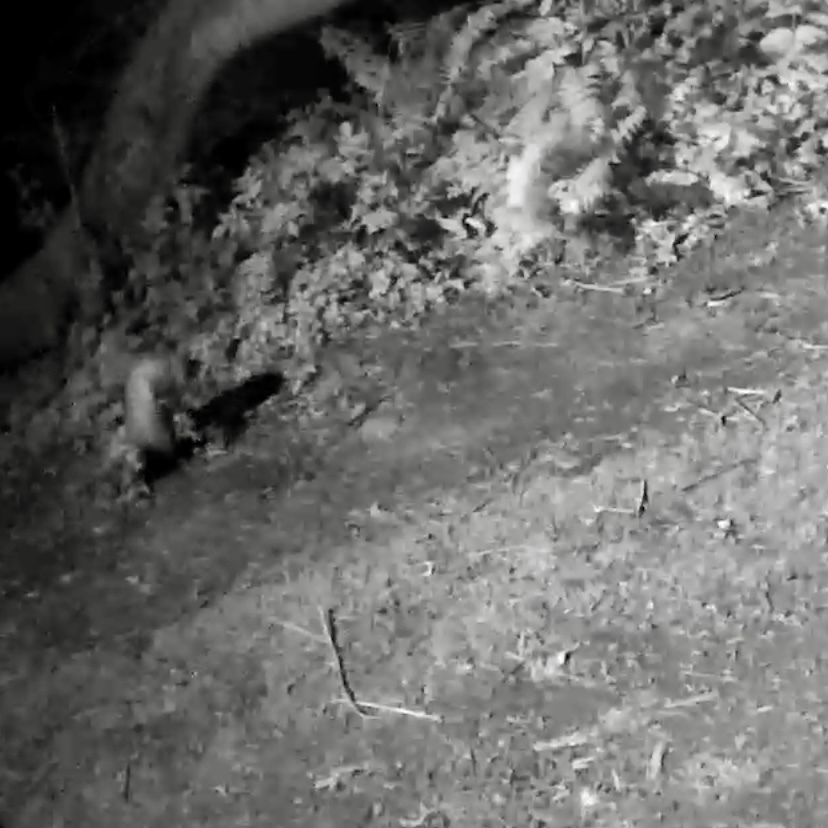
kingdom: Animalia
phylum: Chordata
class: Mammalia
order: Didelphimorphia
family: Didelphidae
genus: Didelphis
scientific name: Didelphis virginiana
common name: Virginia opossum
